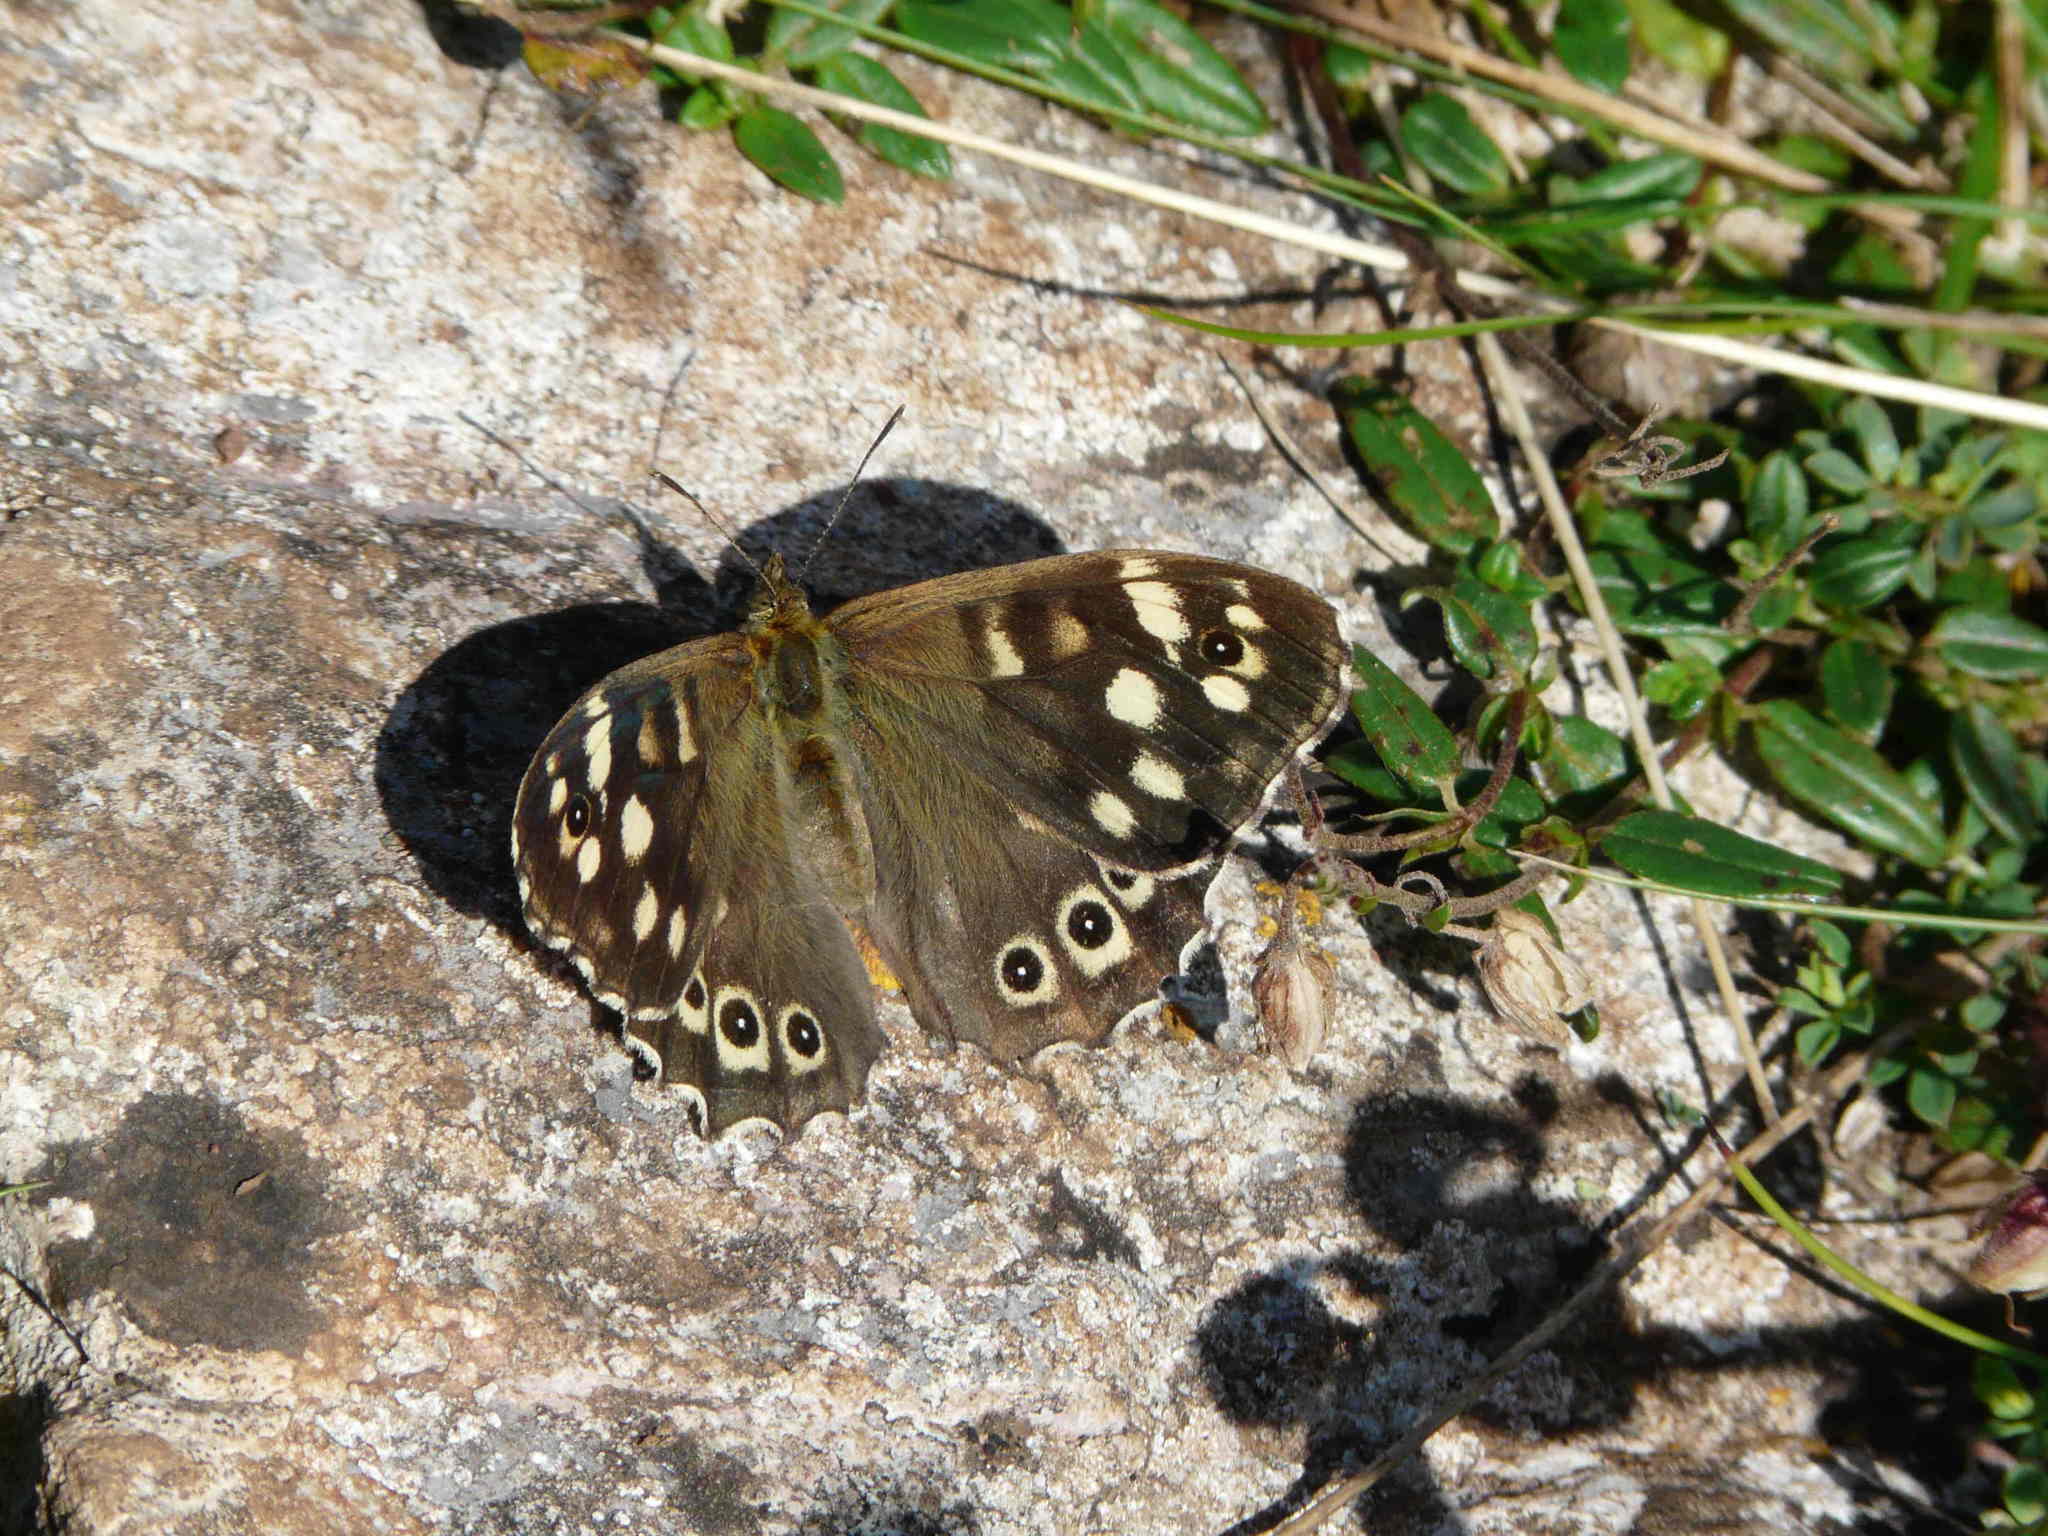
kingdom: Animalia
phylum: Arthropoda
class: Insecta
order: Lepidoptera
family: Nymphalidae
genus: Pararge
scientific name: Pararge aegeria
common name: Speckled wood
